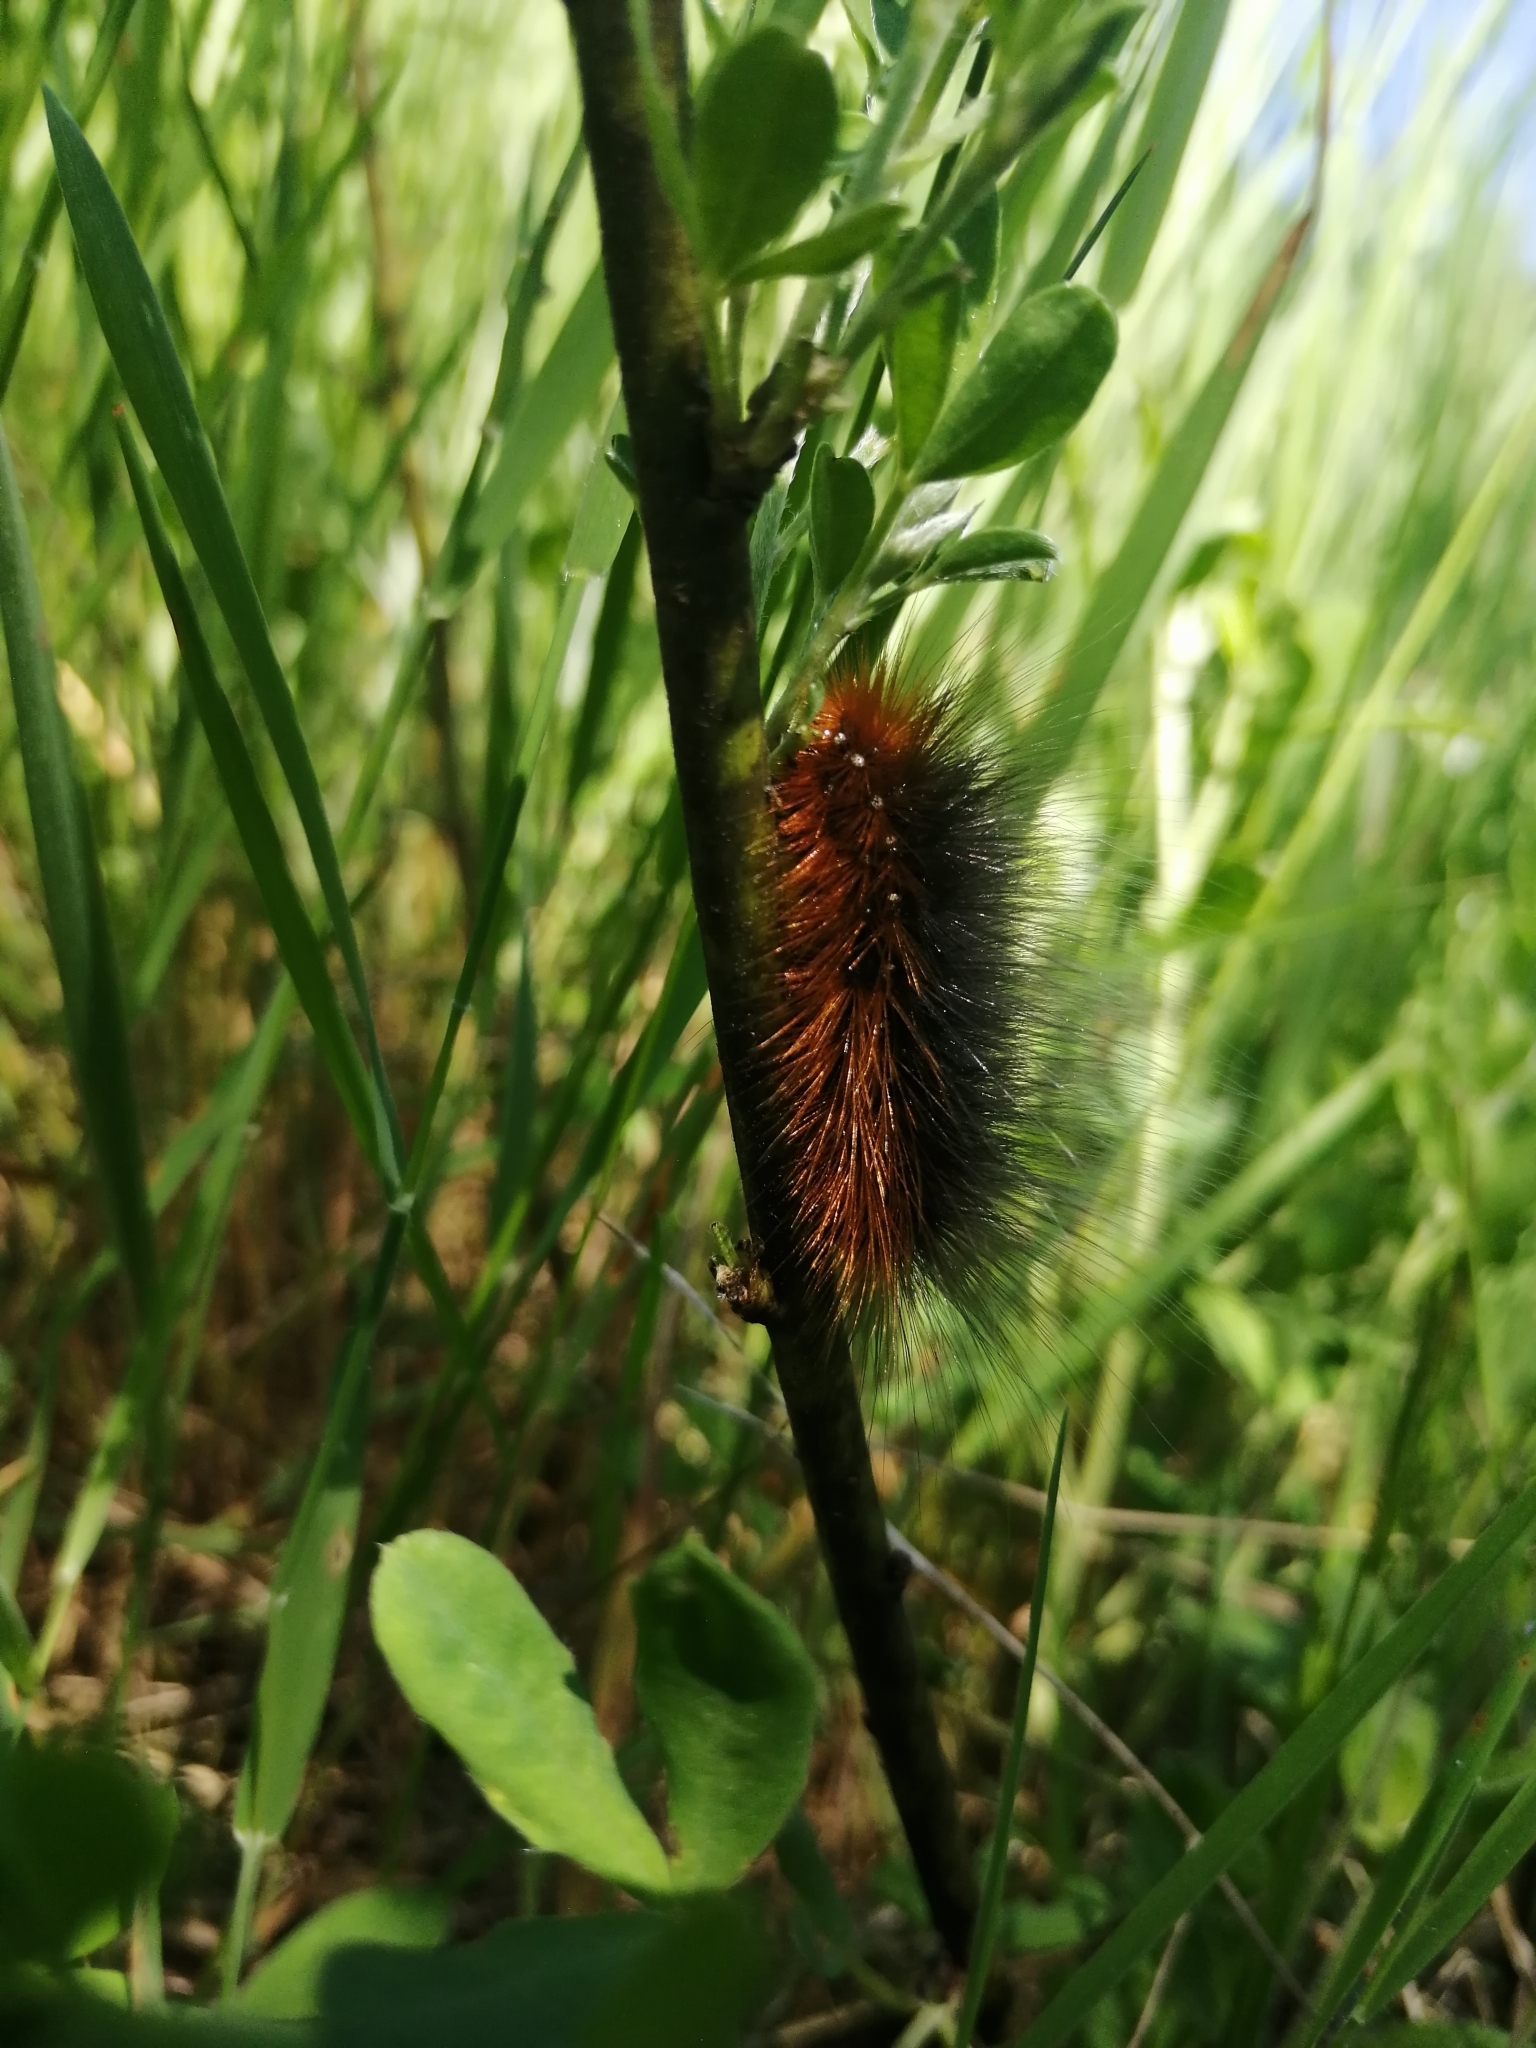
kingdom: Animalia
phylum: Arthropoda
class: Insecta
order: Lepidoptera
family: Erebidae
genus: Arctia
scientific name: Arctia caja
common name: Garden tiger
